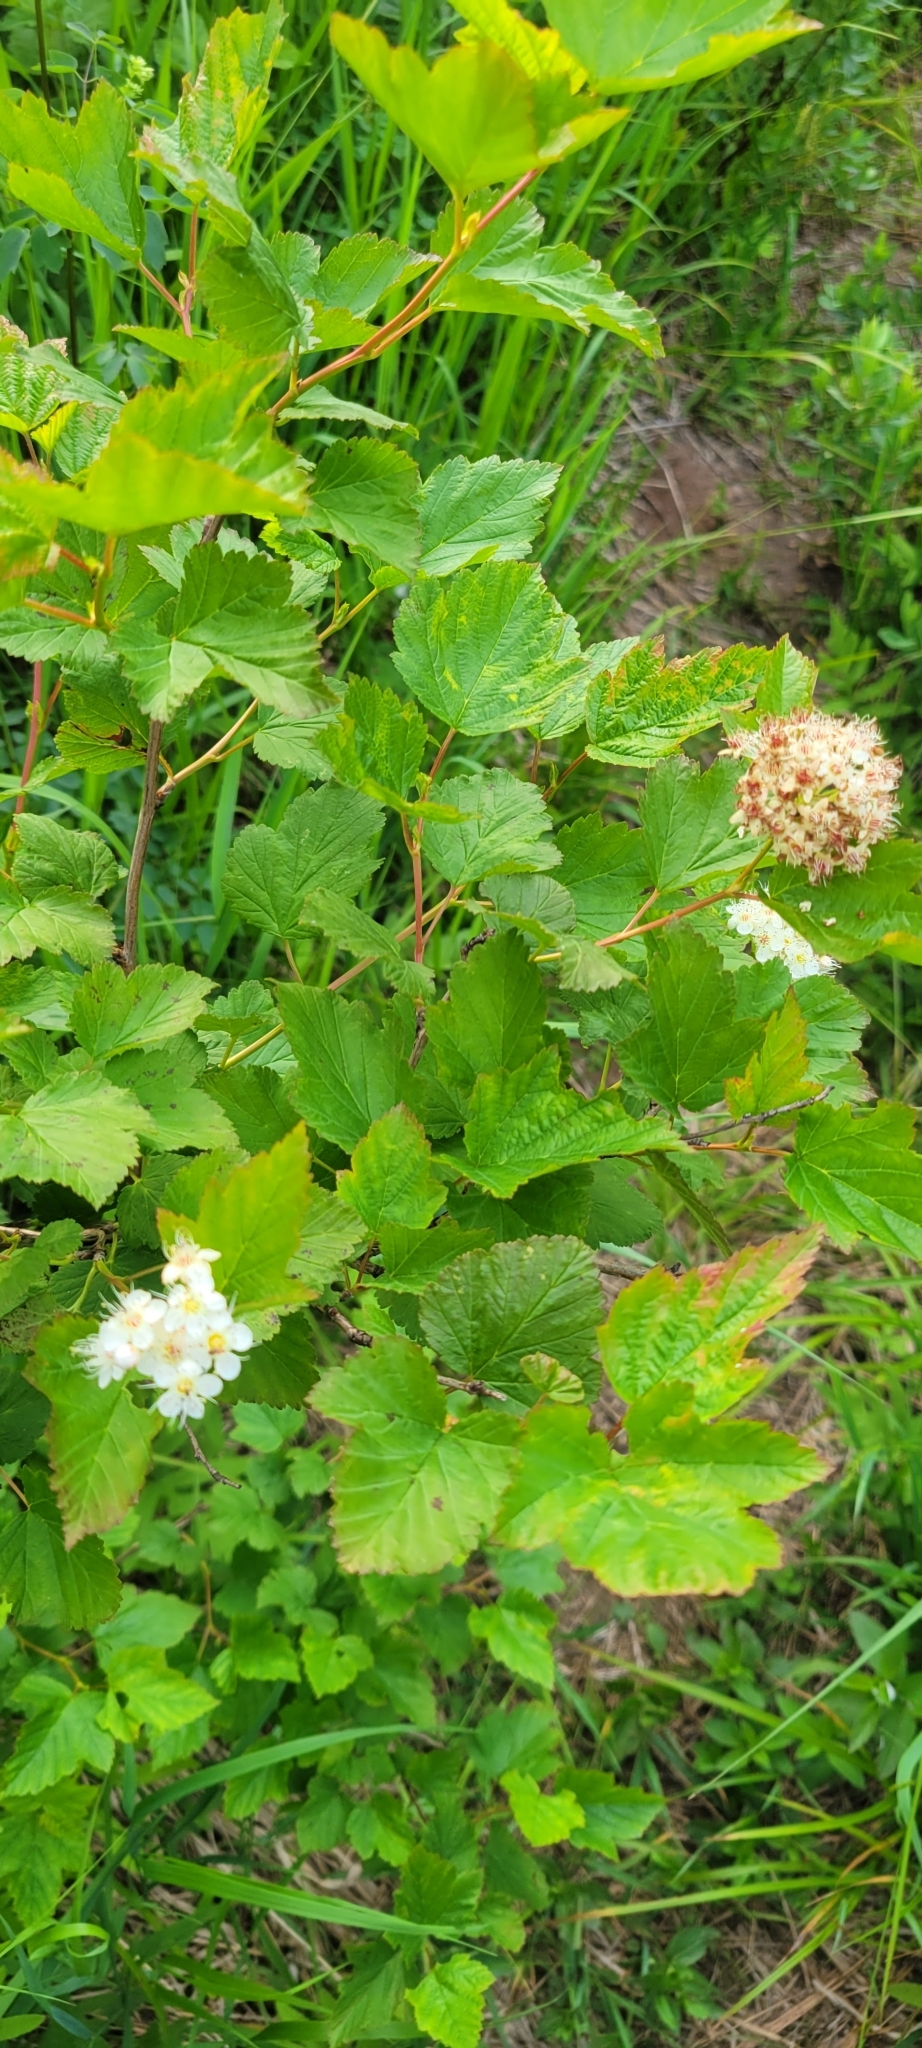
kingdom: Plantae
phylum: Tracheophyta
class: Magnoliopsida
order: Rosales
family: Rosaceae
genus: Physocarpus
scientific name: Physocarpus opulifolius
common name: Ninebark
